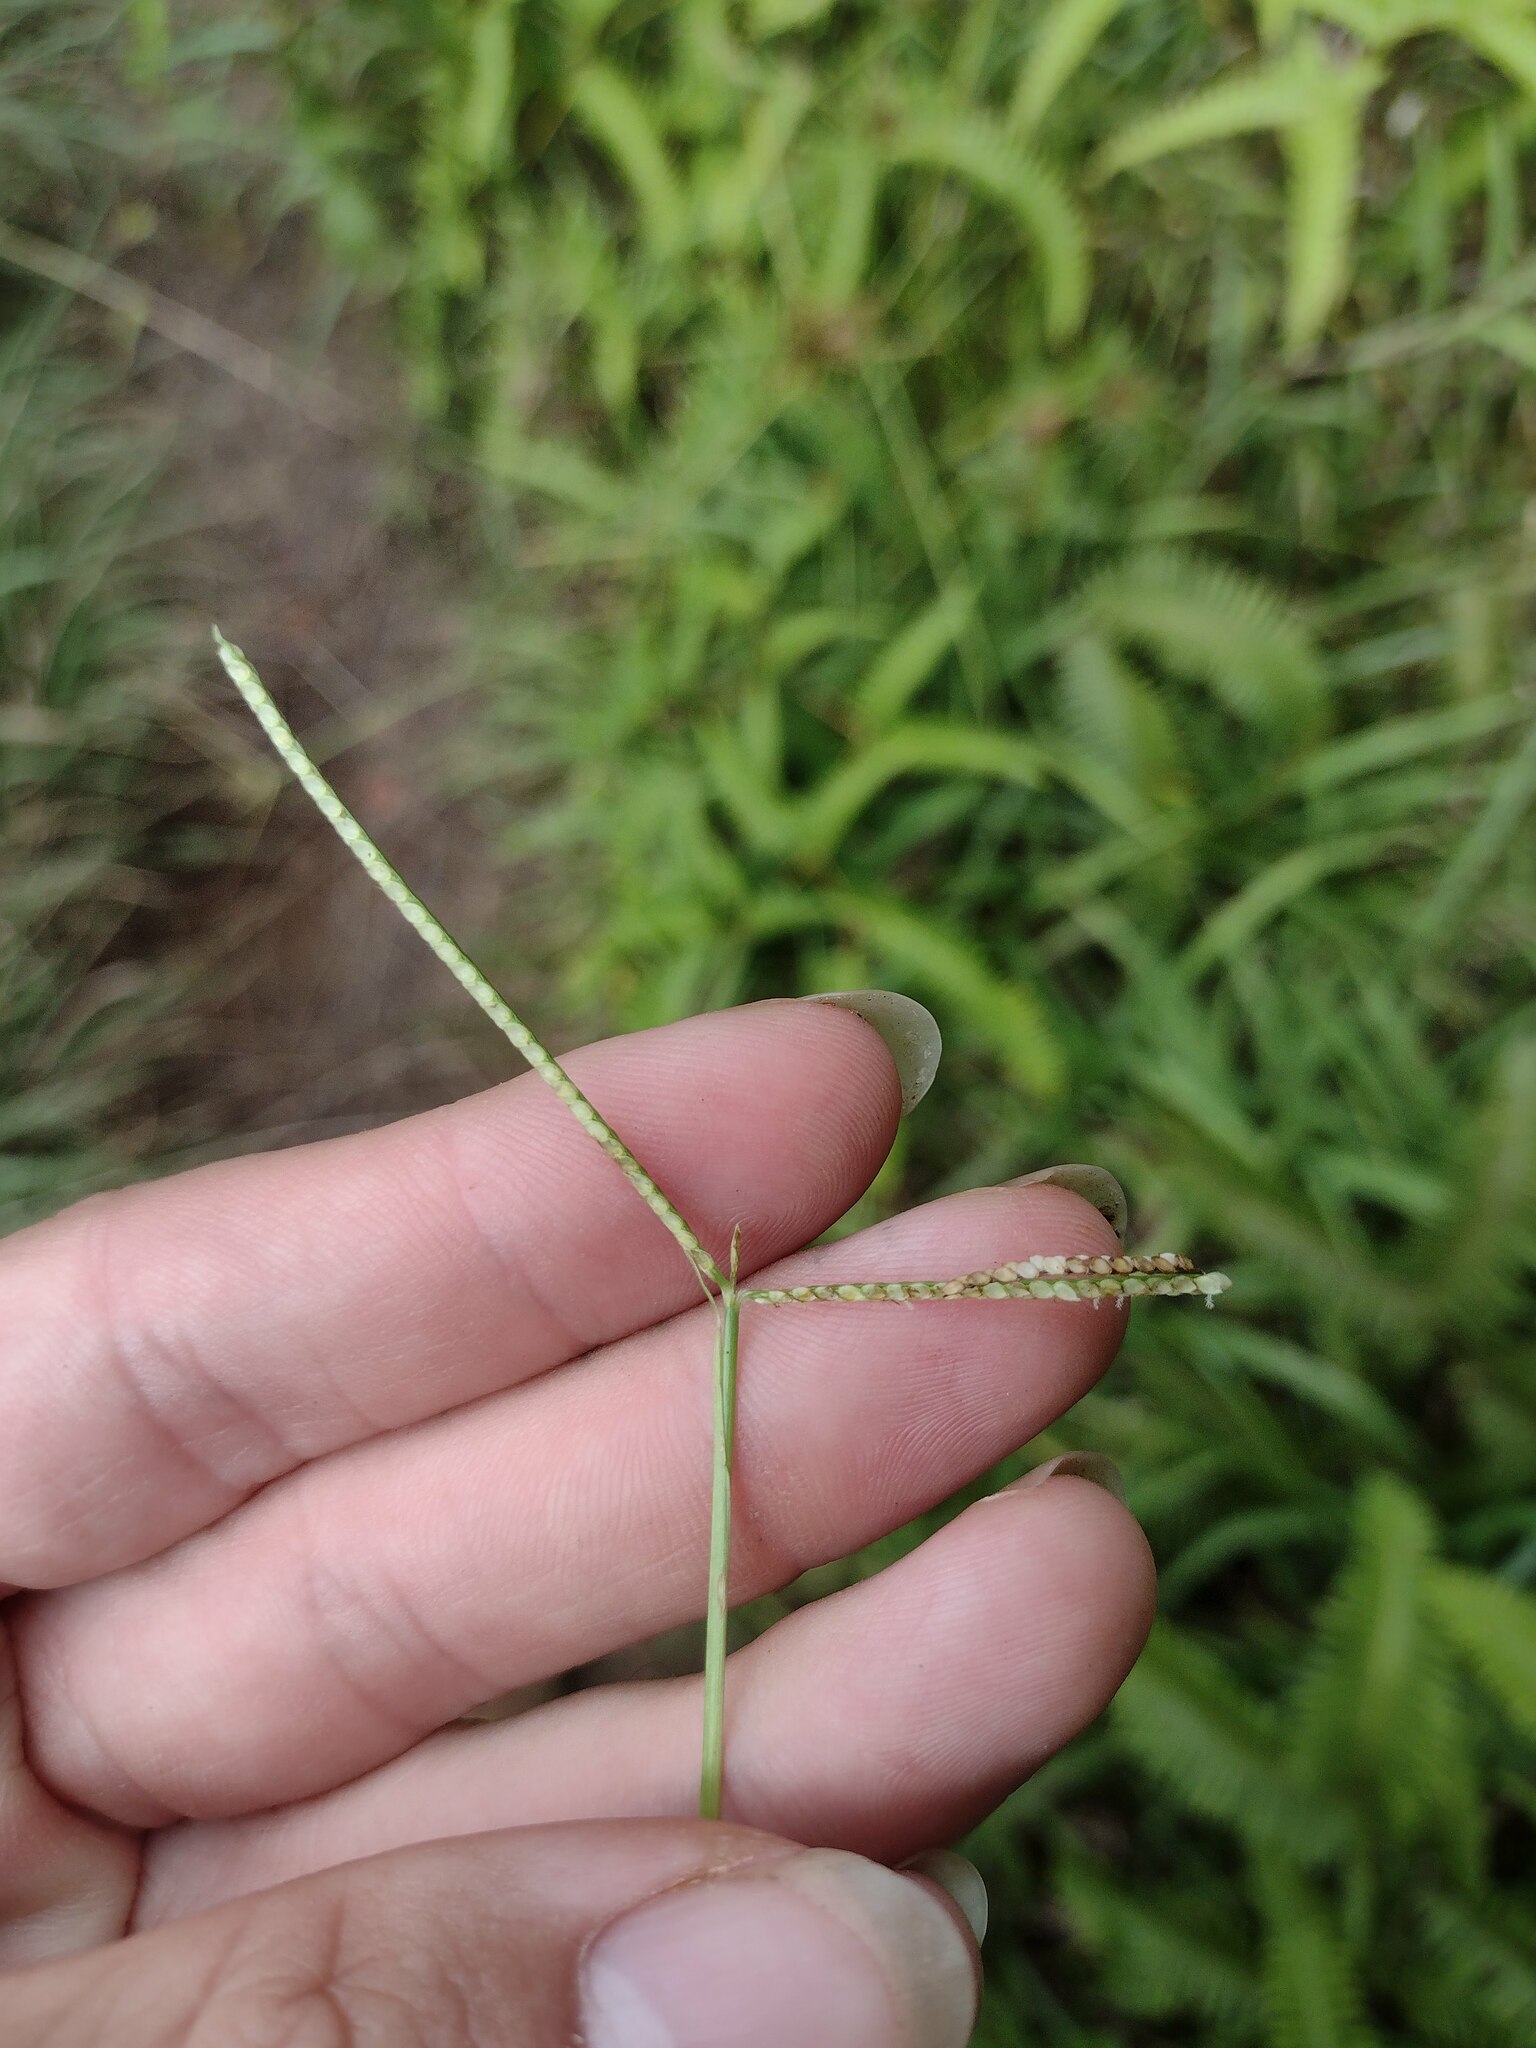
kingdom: Plantae
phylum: Tracheophyta
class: Liliopsida
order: Poales
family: Poaceae
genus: Paspalum
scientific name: Paspalum conjugatum
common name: Hilograss
